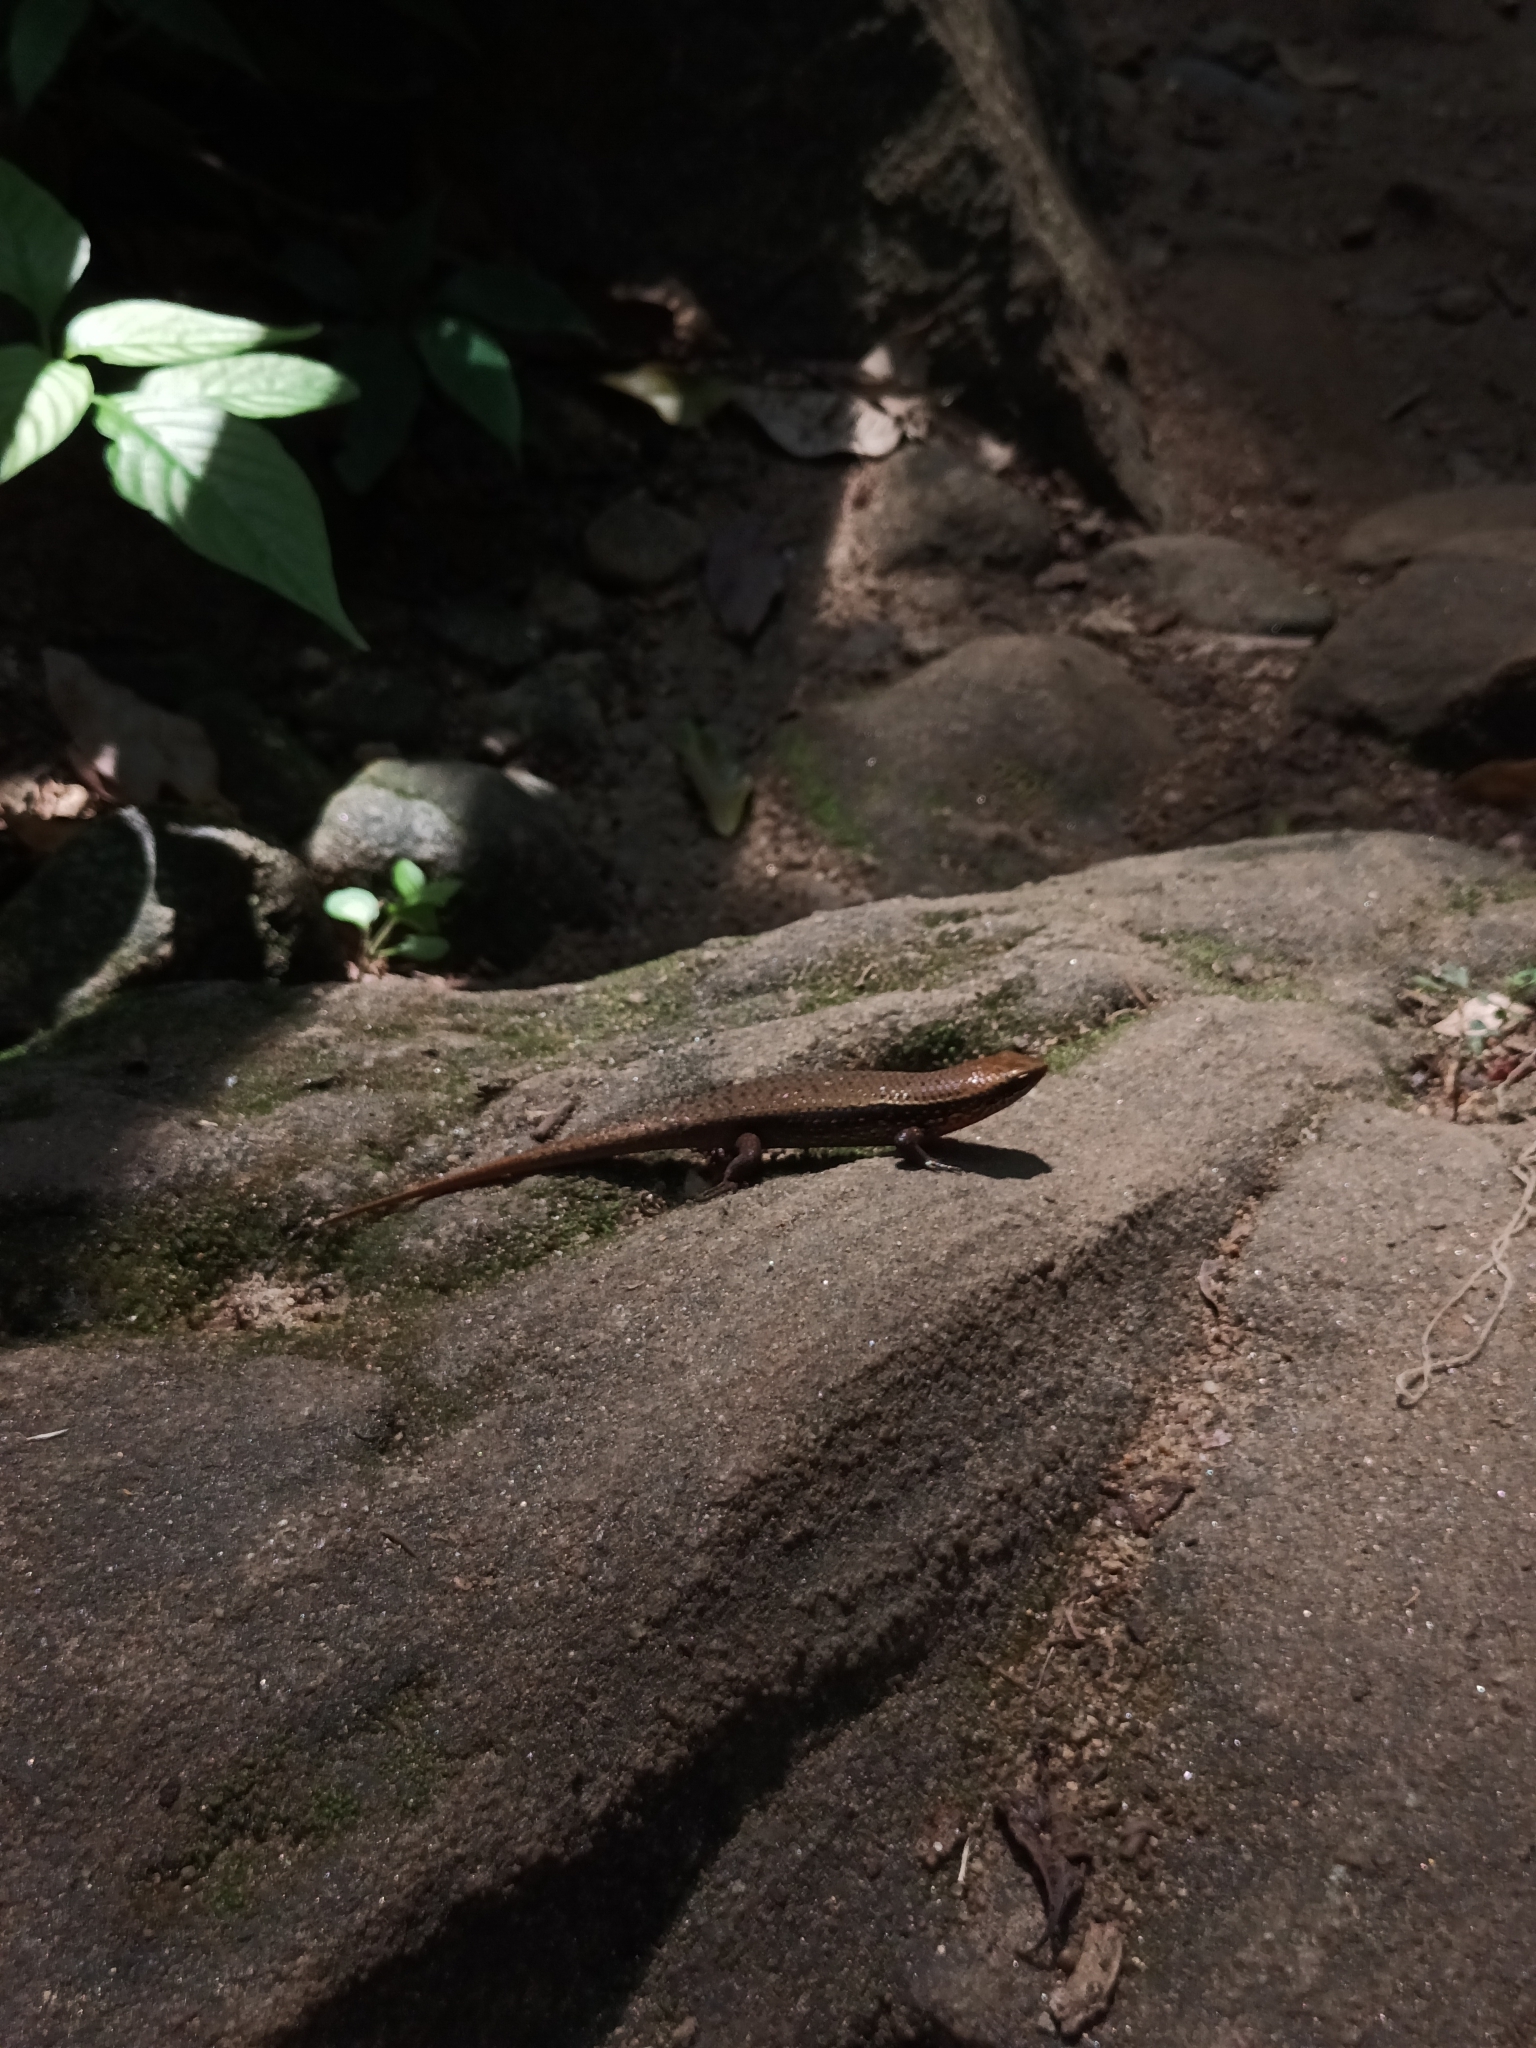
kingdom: Animalia
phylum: Chordata
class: Squamata
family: Scincidae
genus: Eutropis
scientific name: Eutropis macularia
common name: Bronze mabuya
